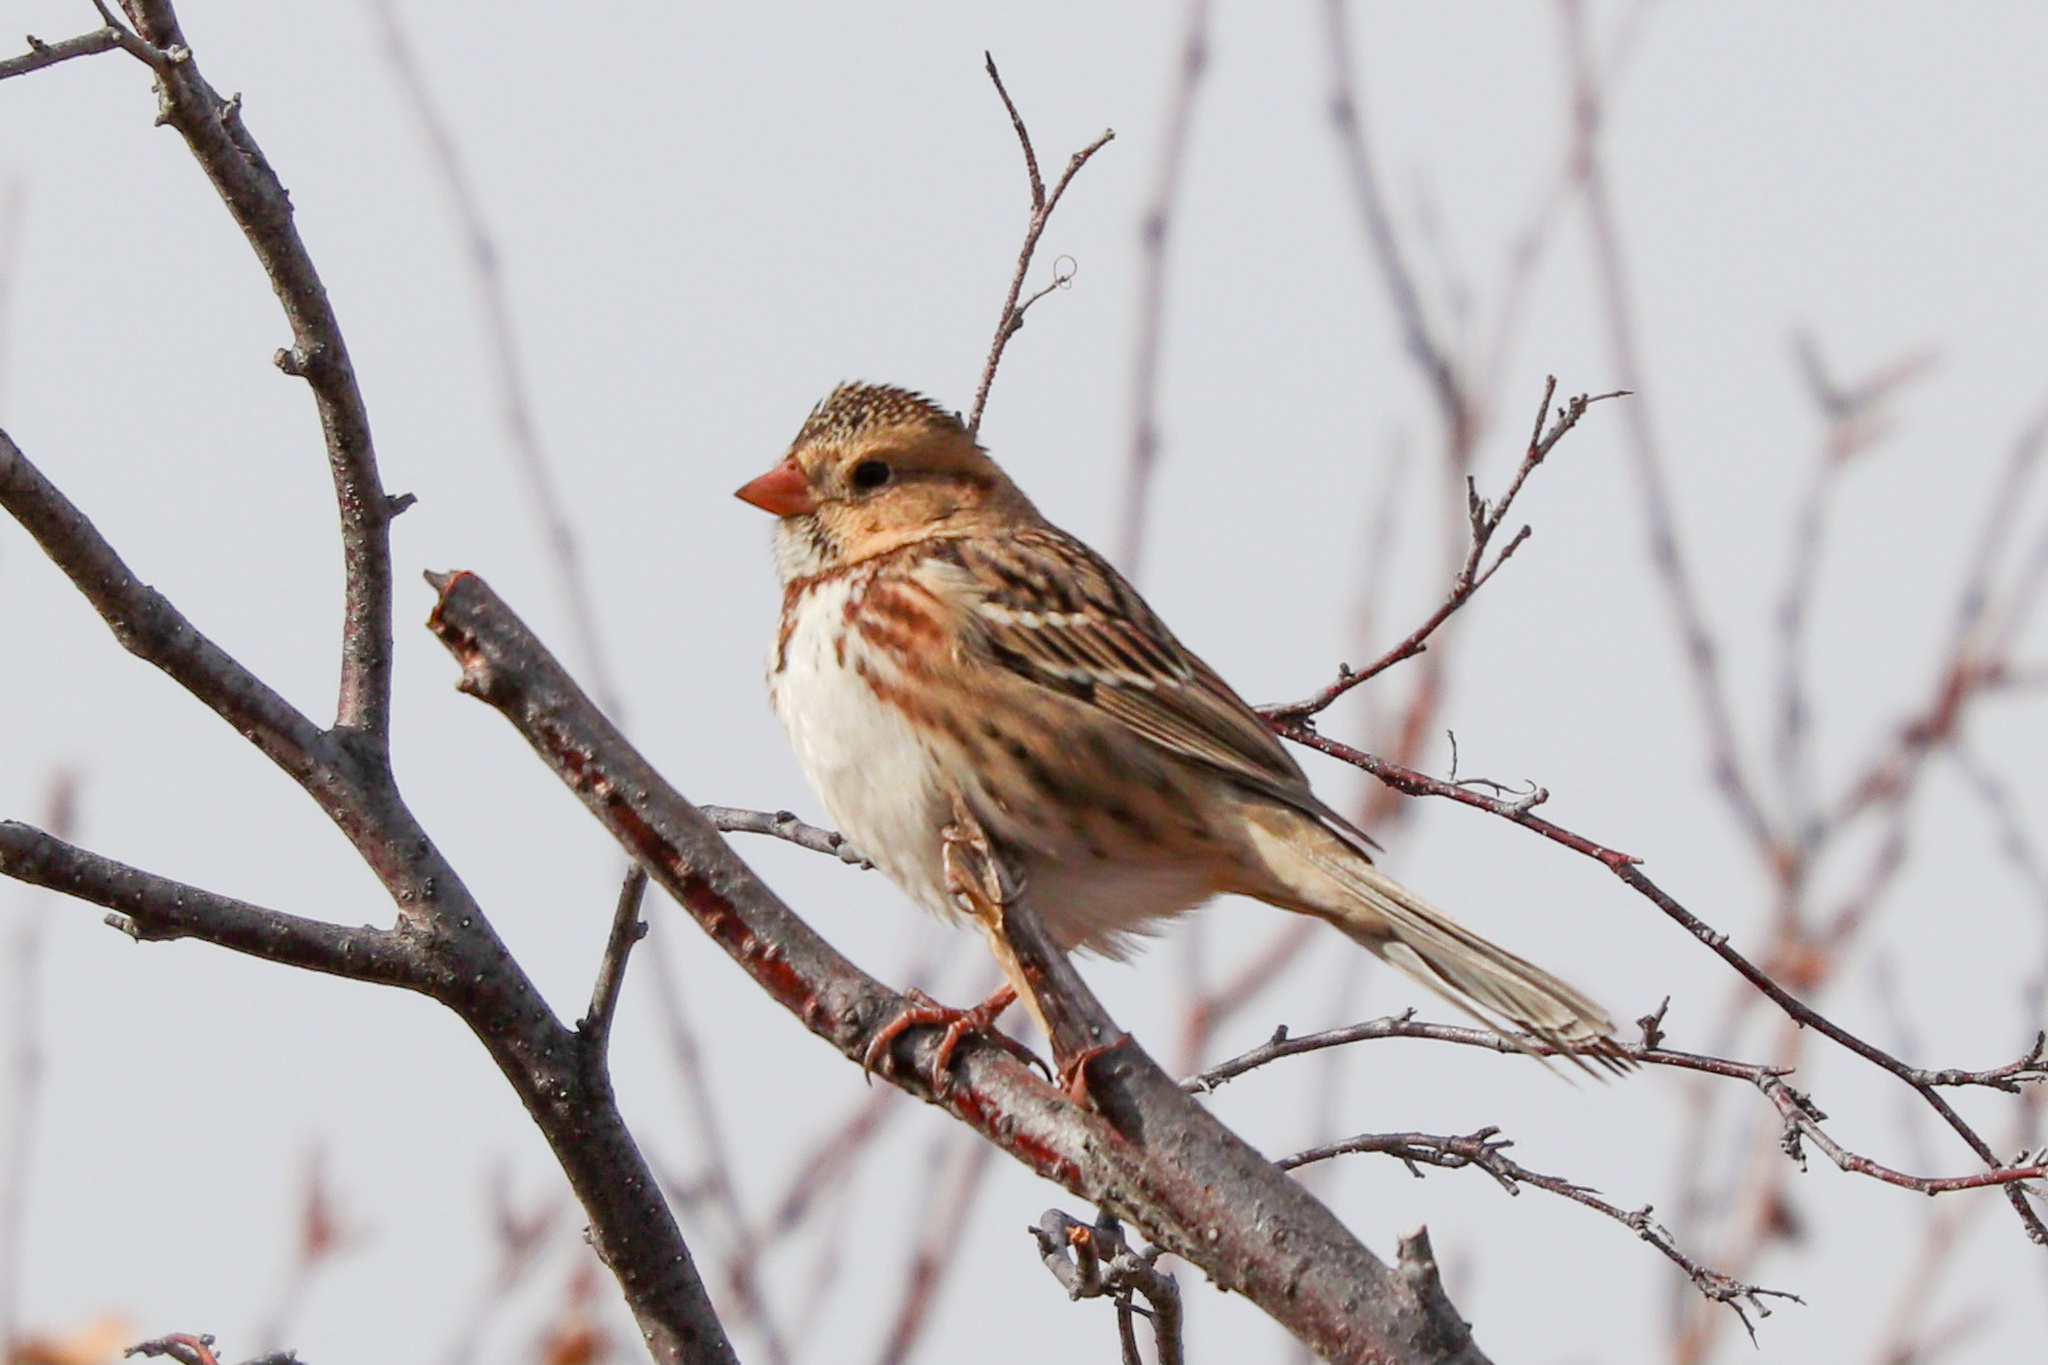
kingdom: Animalia
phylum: Chordata
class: Aves
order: Passeriformes
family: Passerellidae
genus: Zonotrichia
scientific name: Zonotrichia querula
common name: Harris's sparrow
